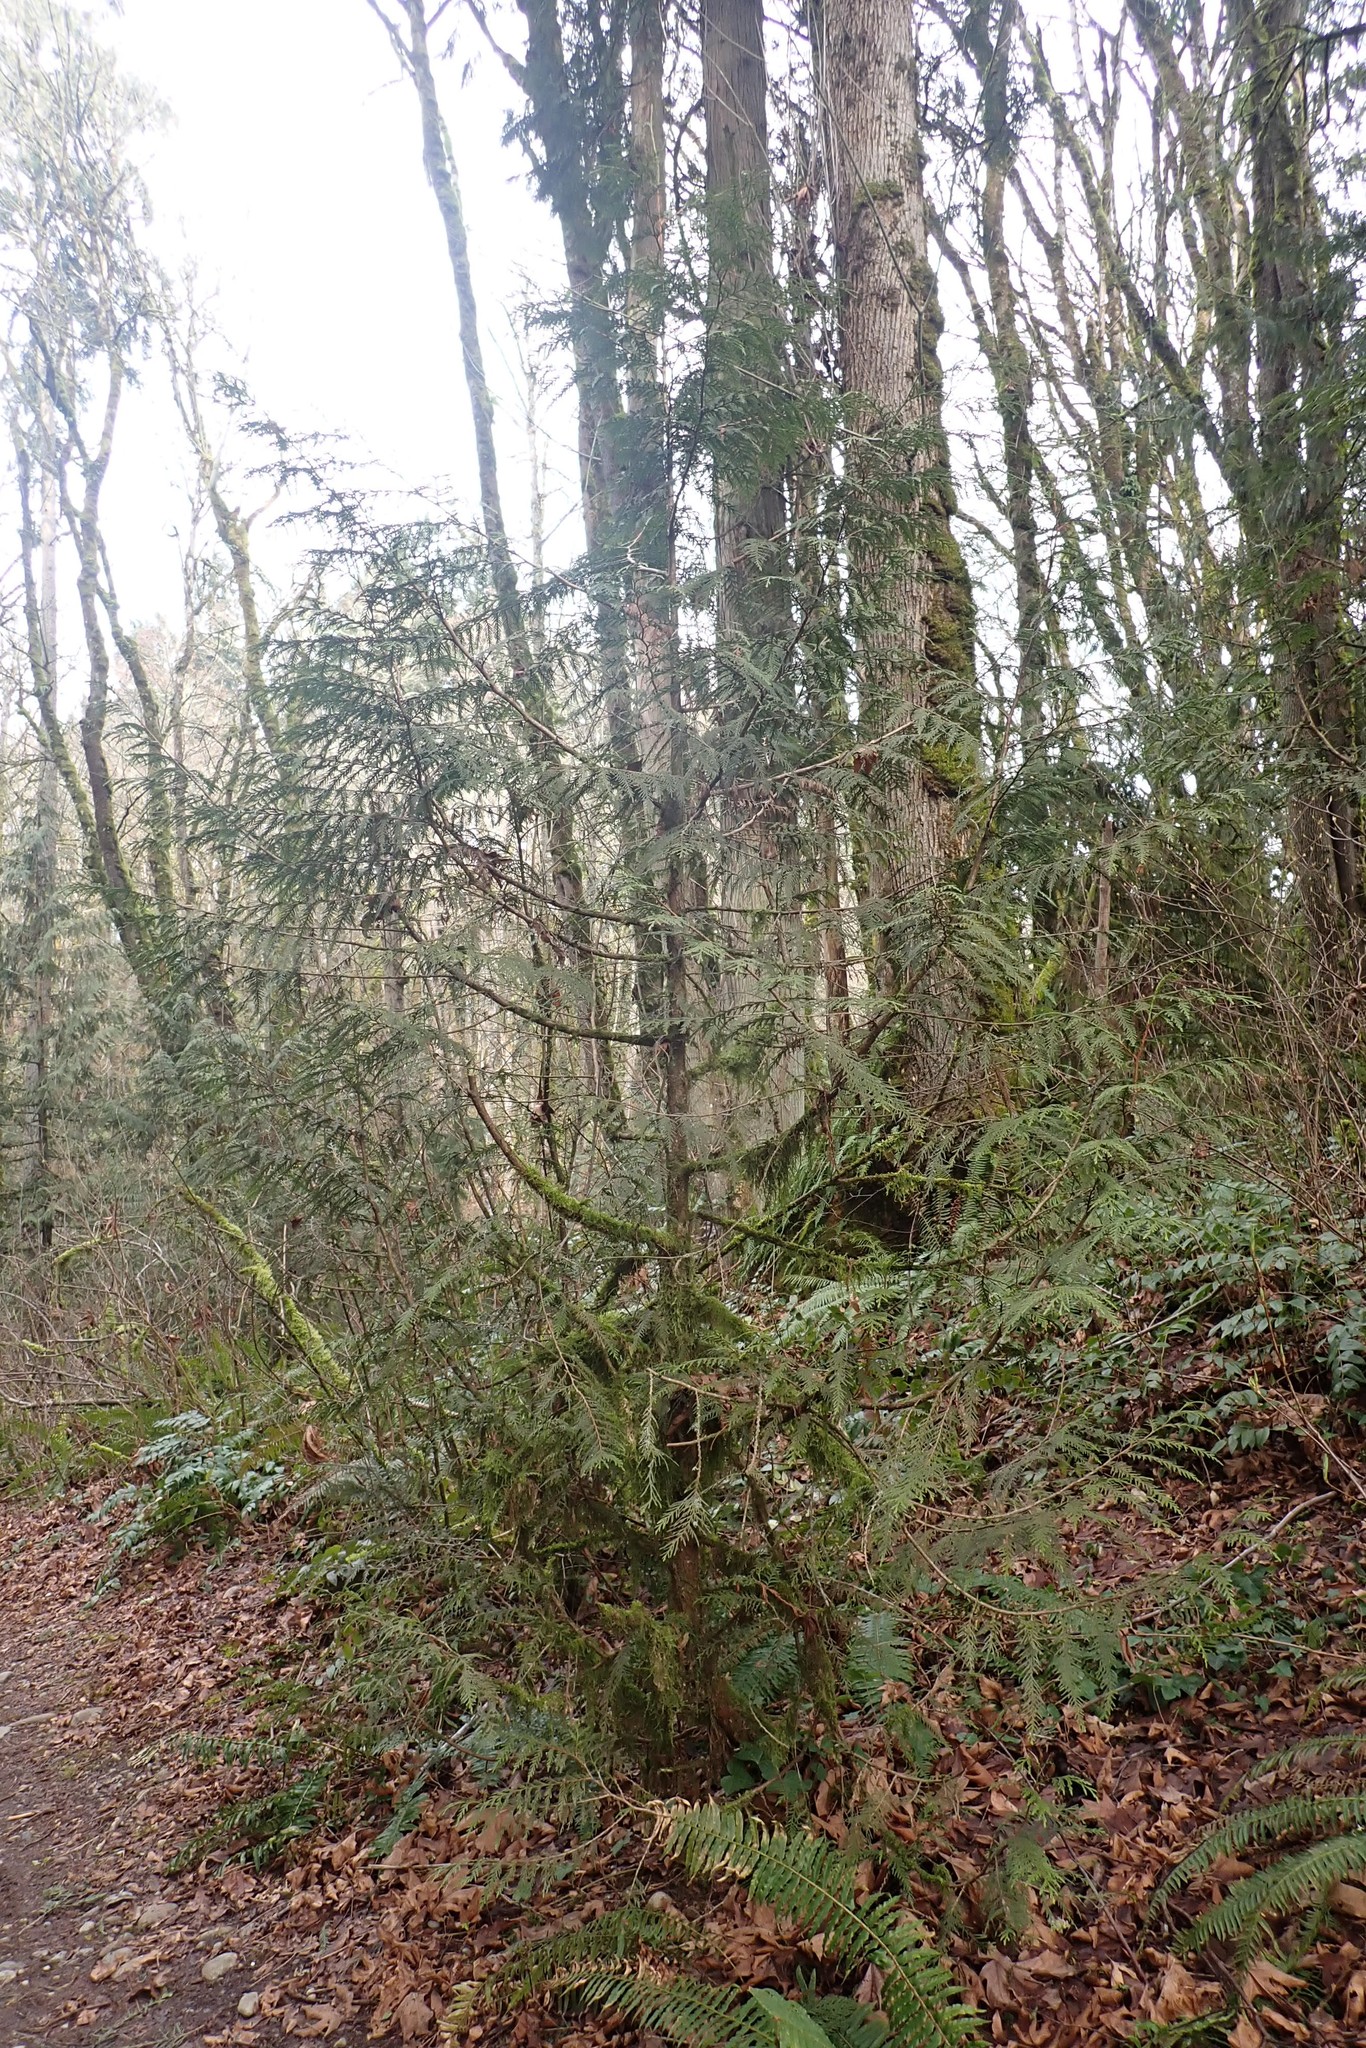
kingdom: Plantae
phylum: Tracheophyta
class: Pinopsida
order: Pinales
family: Cupressaceae
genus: Thuja
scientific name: Thuja plicata
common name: Western red-cedar
